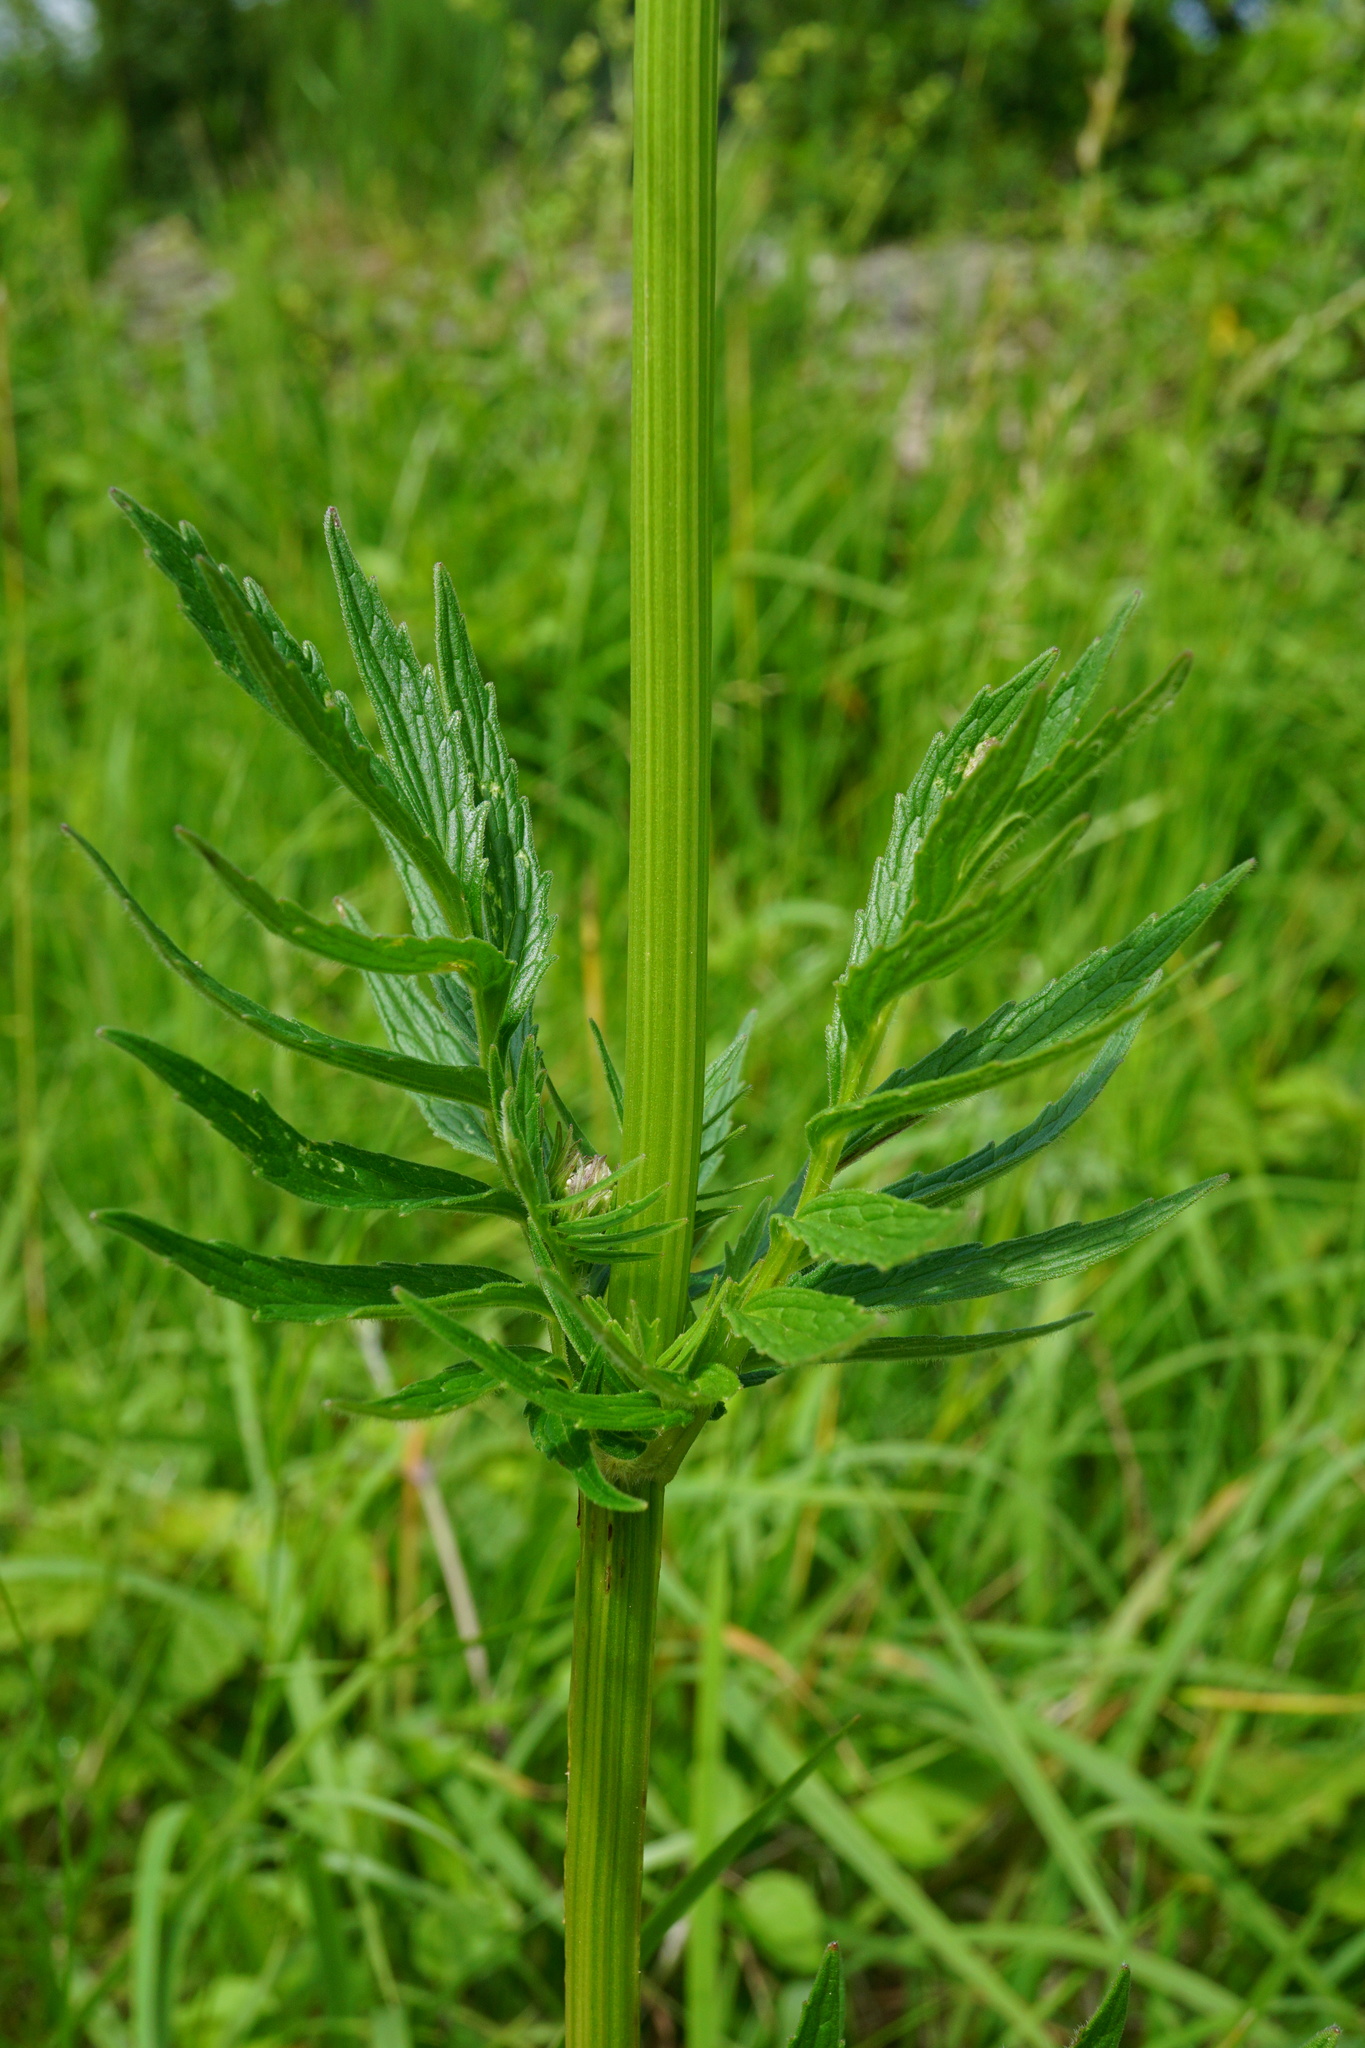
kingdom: Plantae
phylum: Tracheophyta
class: Magnoliopsida
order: Dipsacales
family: Caprifoliaceae
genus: Valeriana
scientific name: Valeriana officinalis
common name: Common valerian
